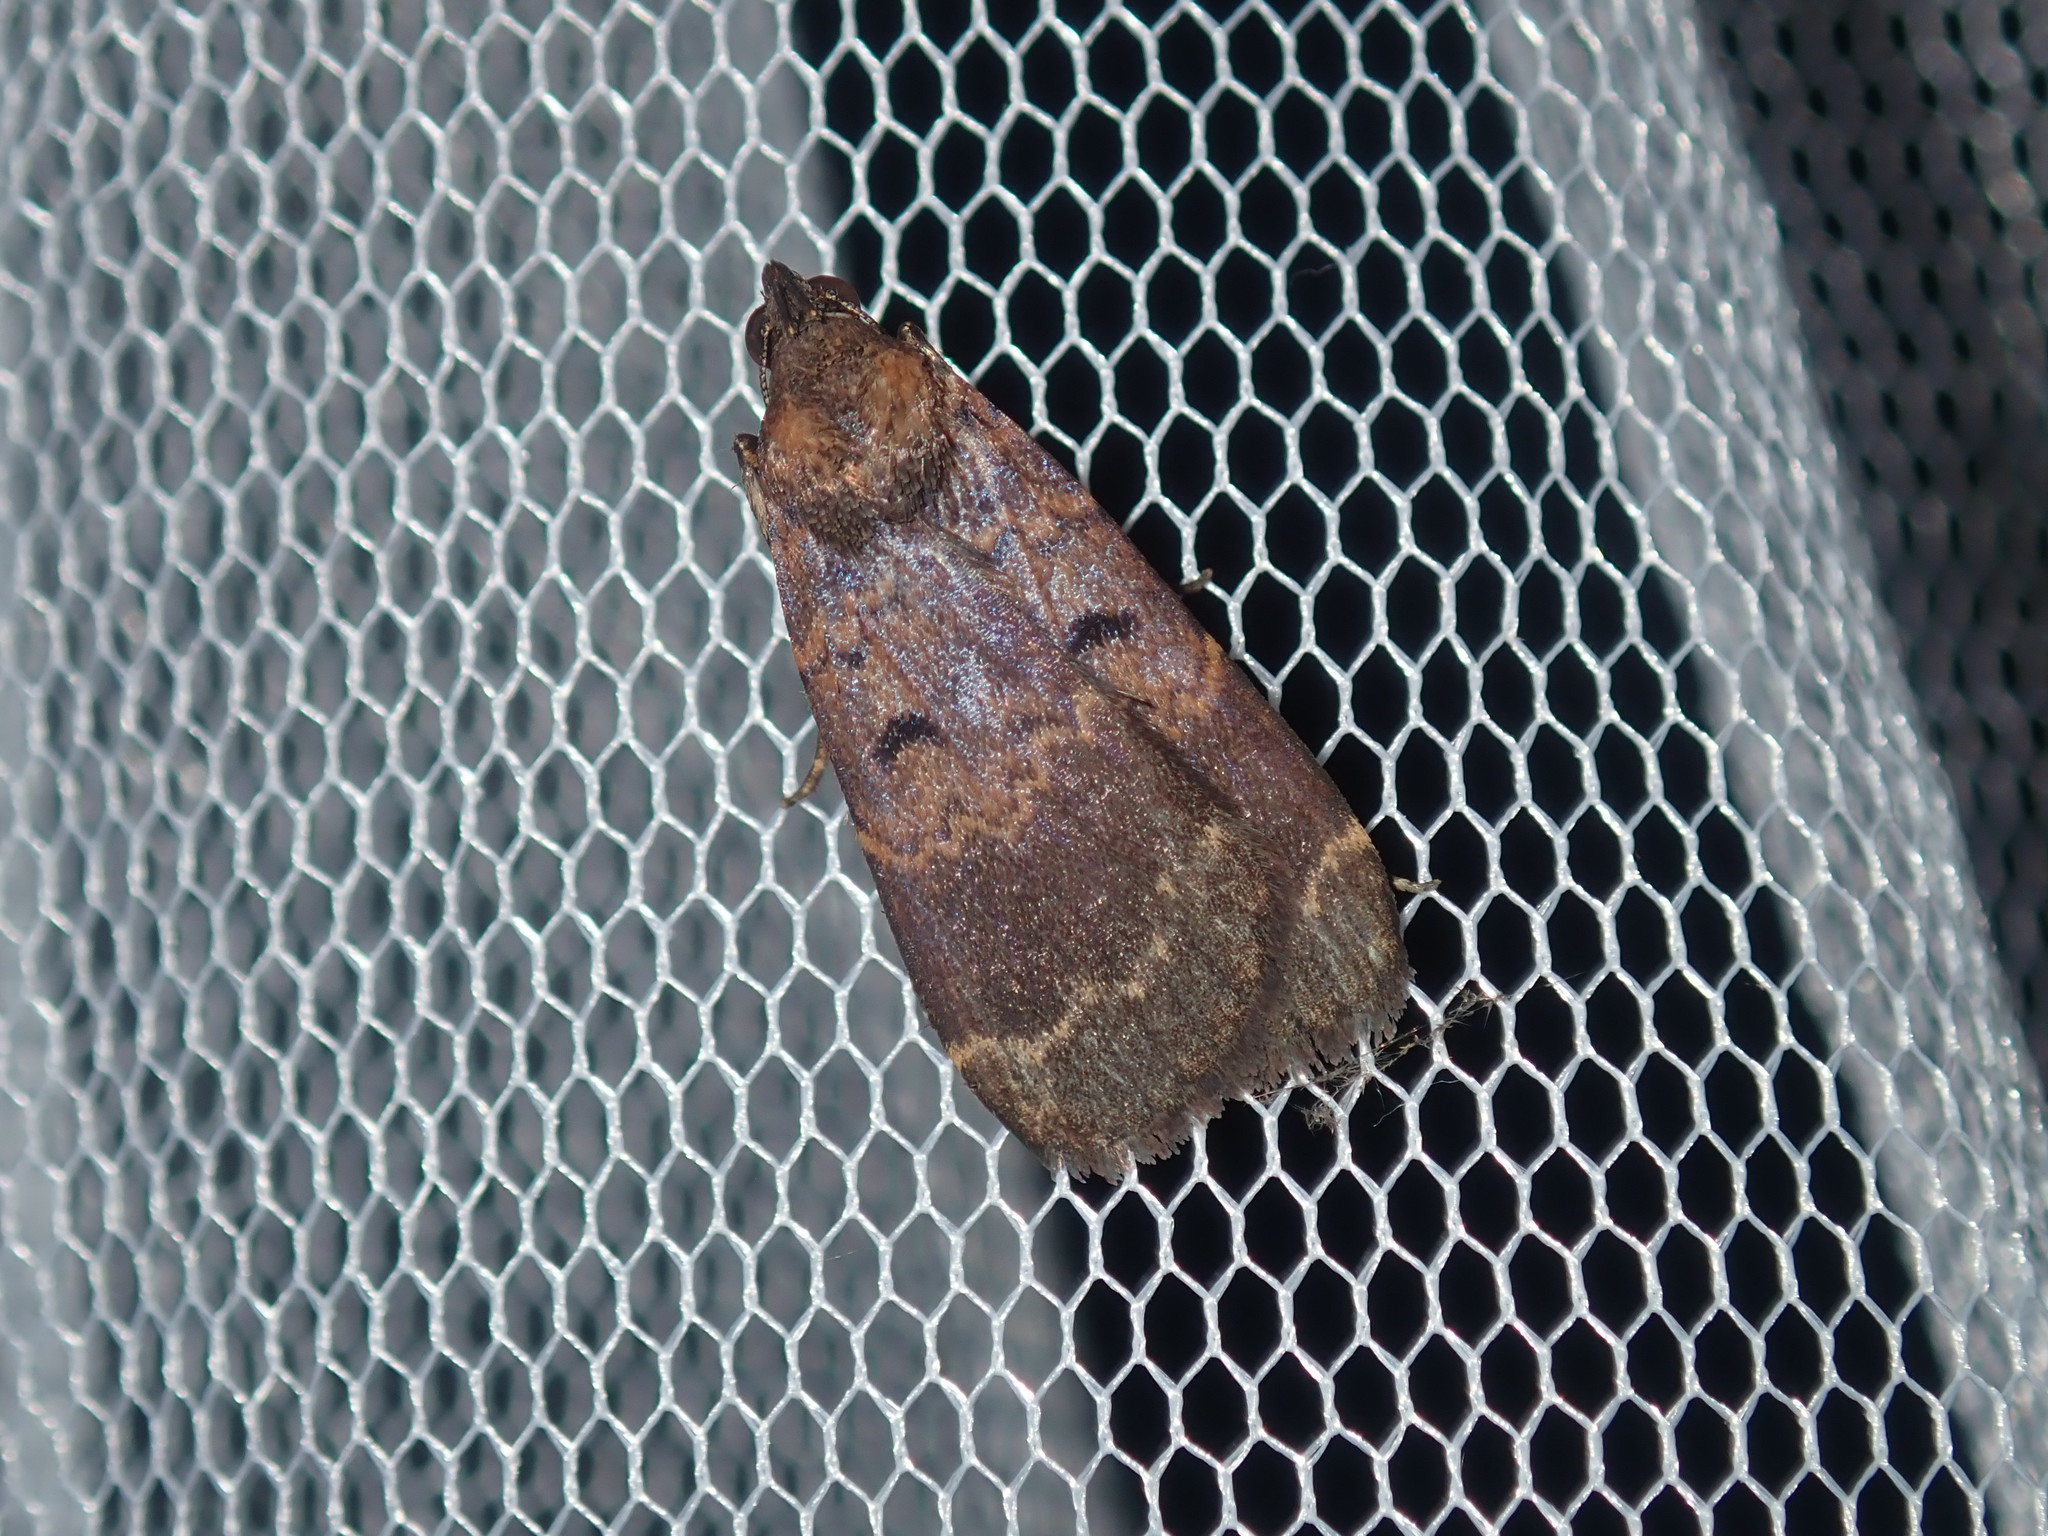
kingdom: Animalia
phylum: Arthropoda
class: Insecta
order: Lepidoptera
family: Erebidae
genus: Hydrillodes
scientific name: Hydrillodes funestalis
